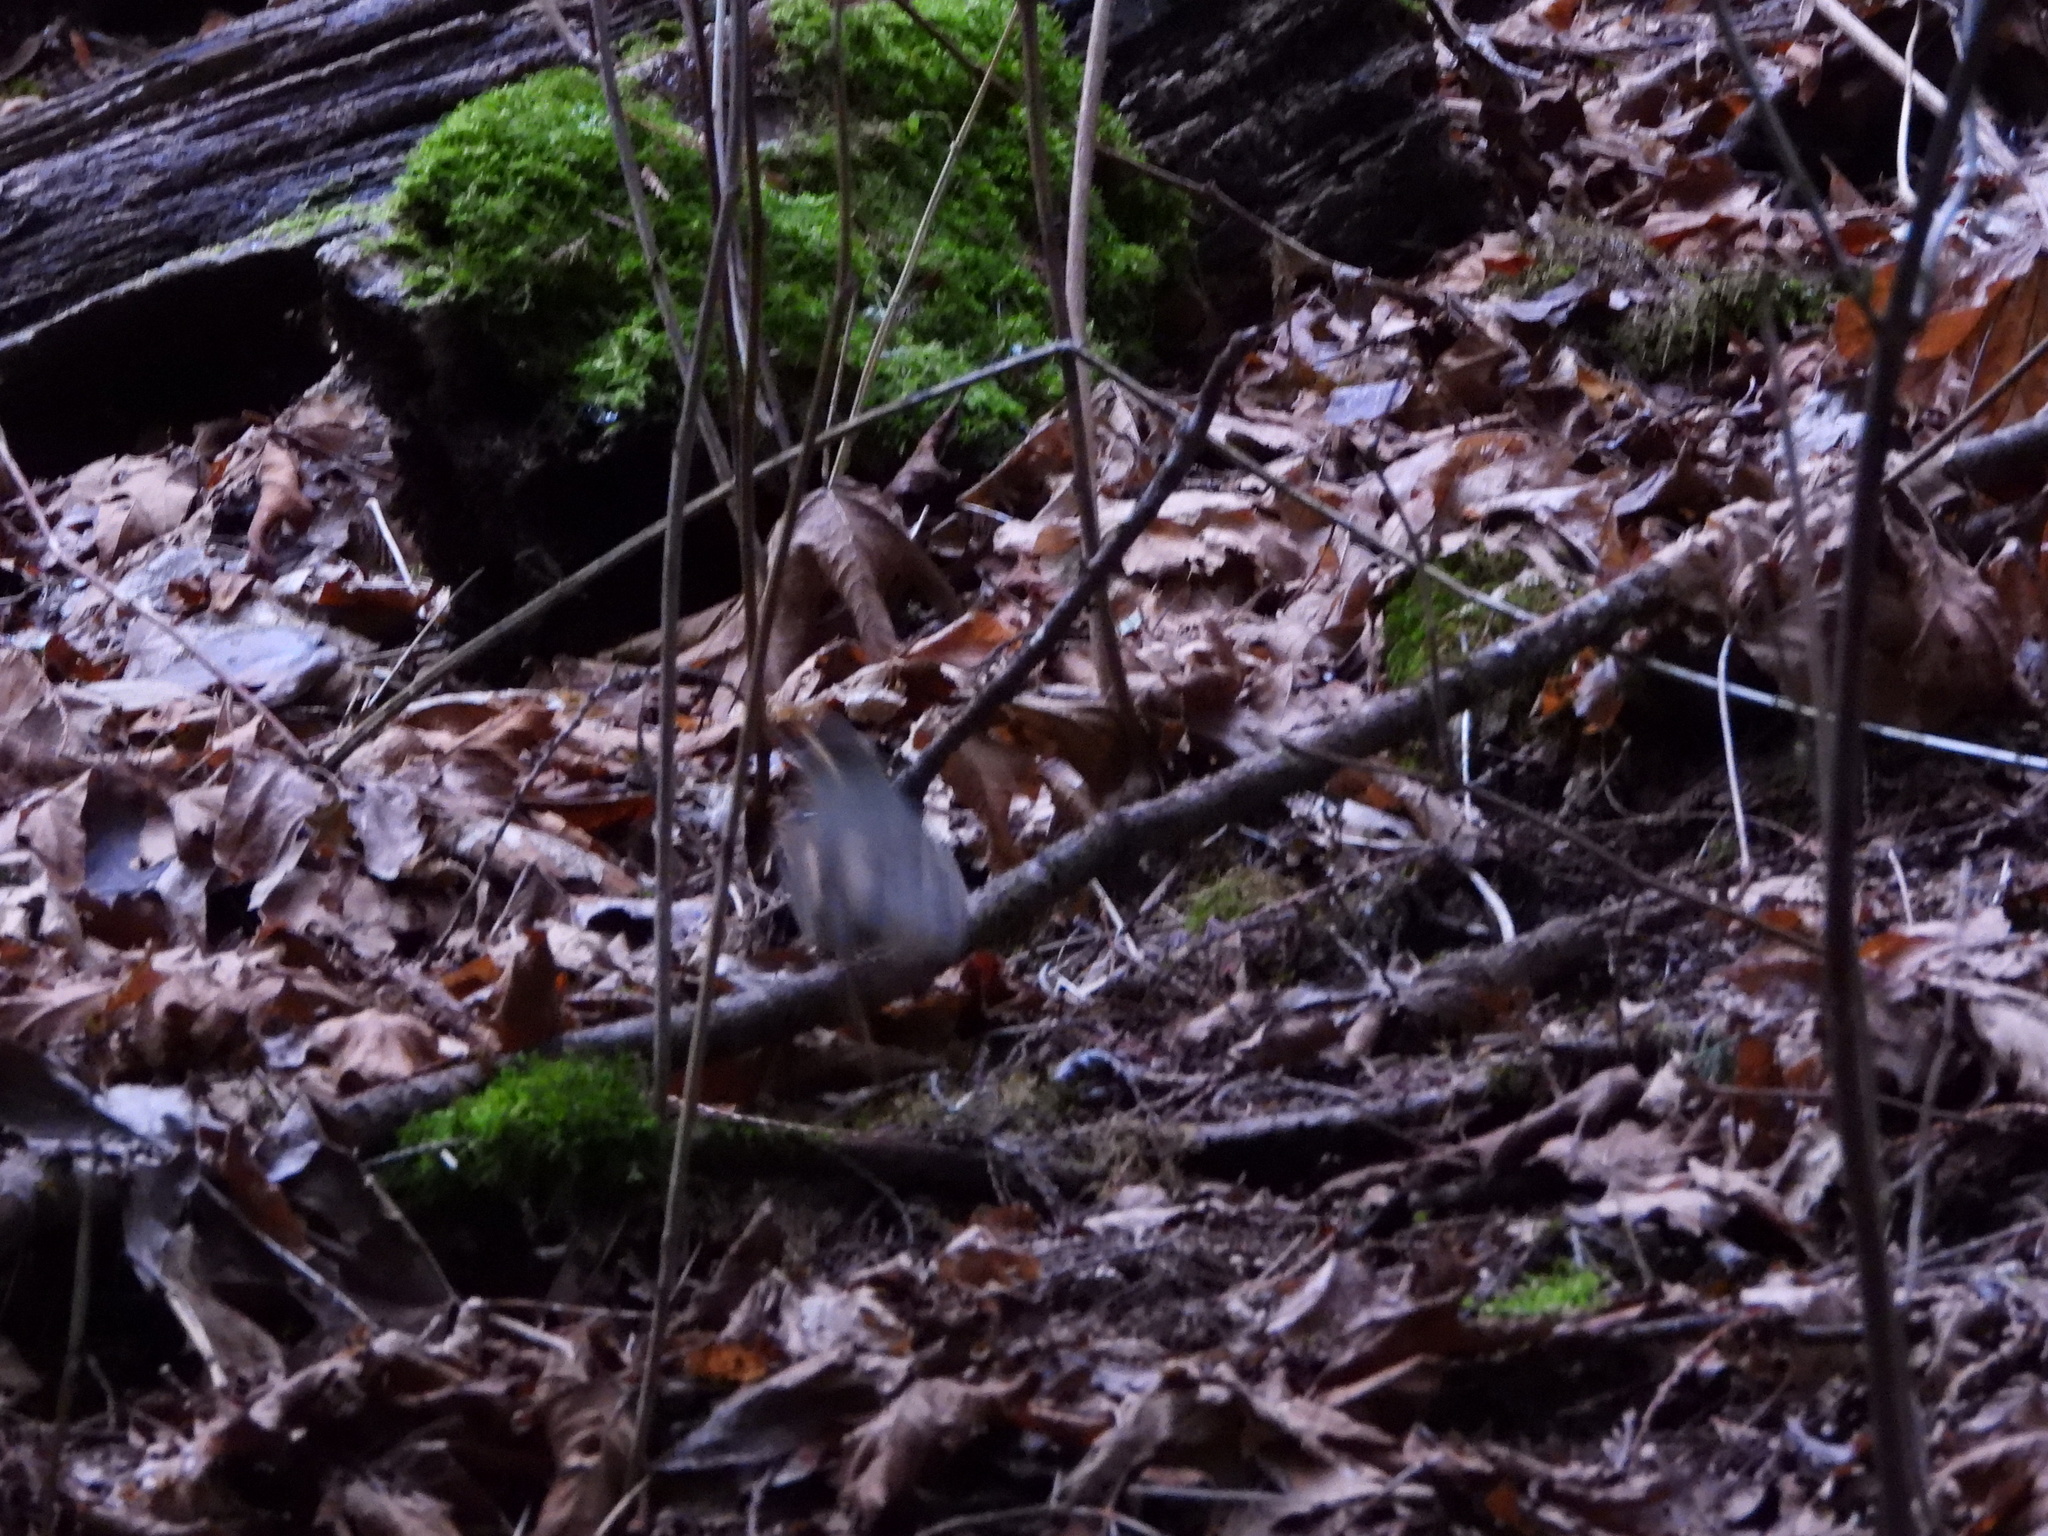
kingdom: Animalia
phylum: Chordata
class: Aves
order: Passeriformes
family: Turdidae
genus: Ixoreus
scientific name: Ixoreus naevius
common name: Varied thrush
